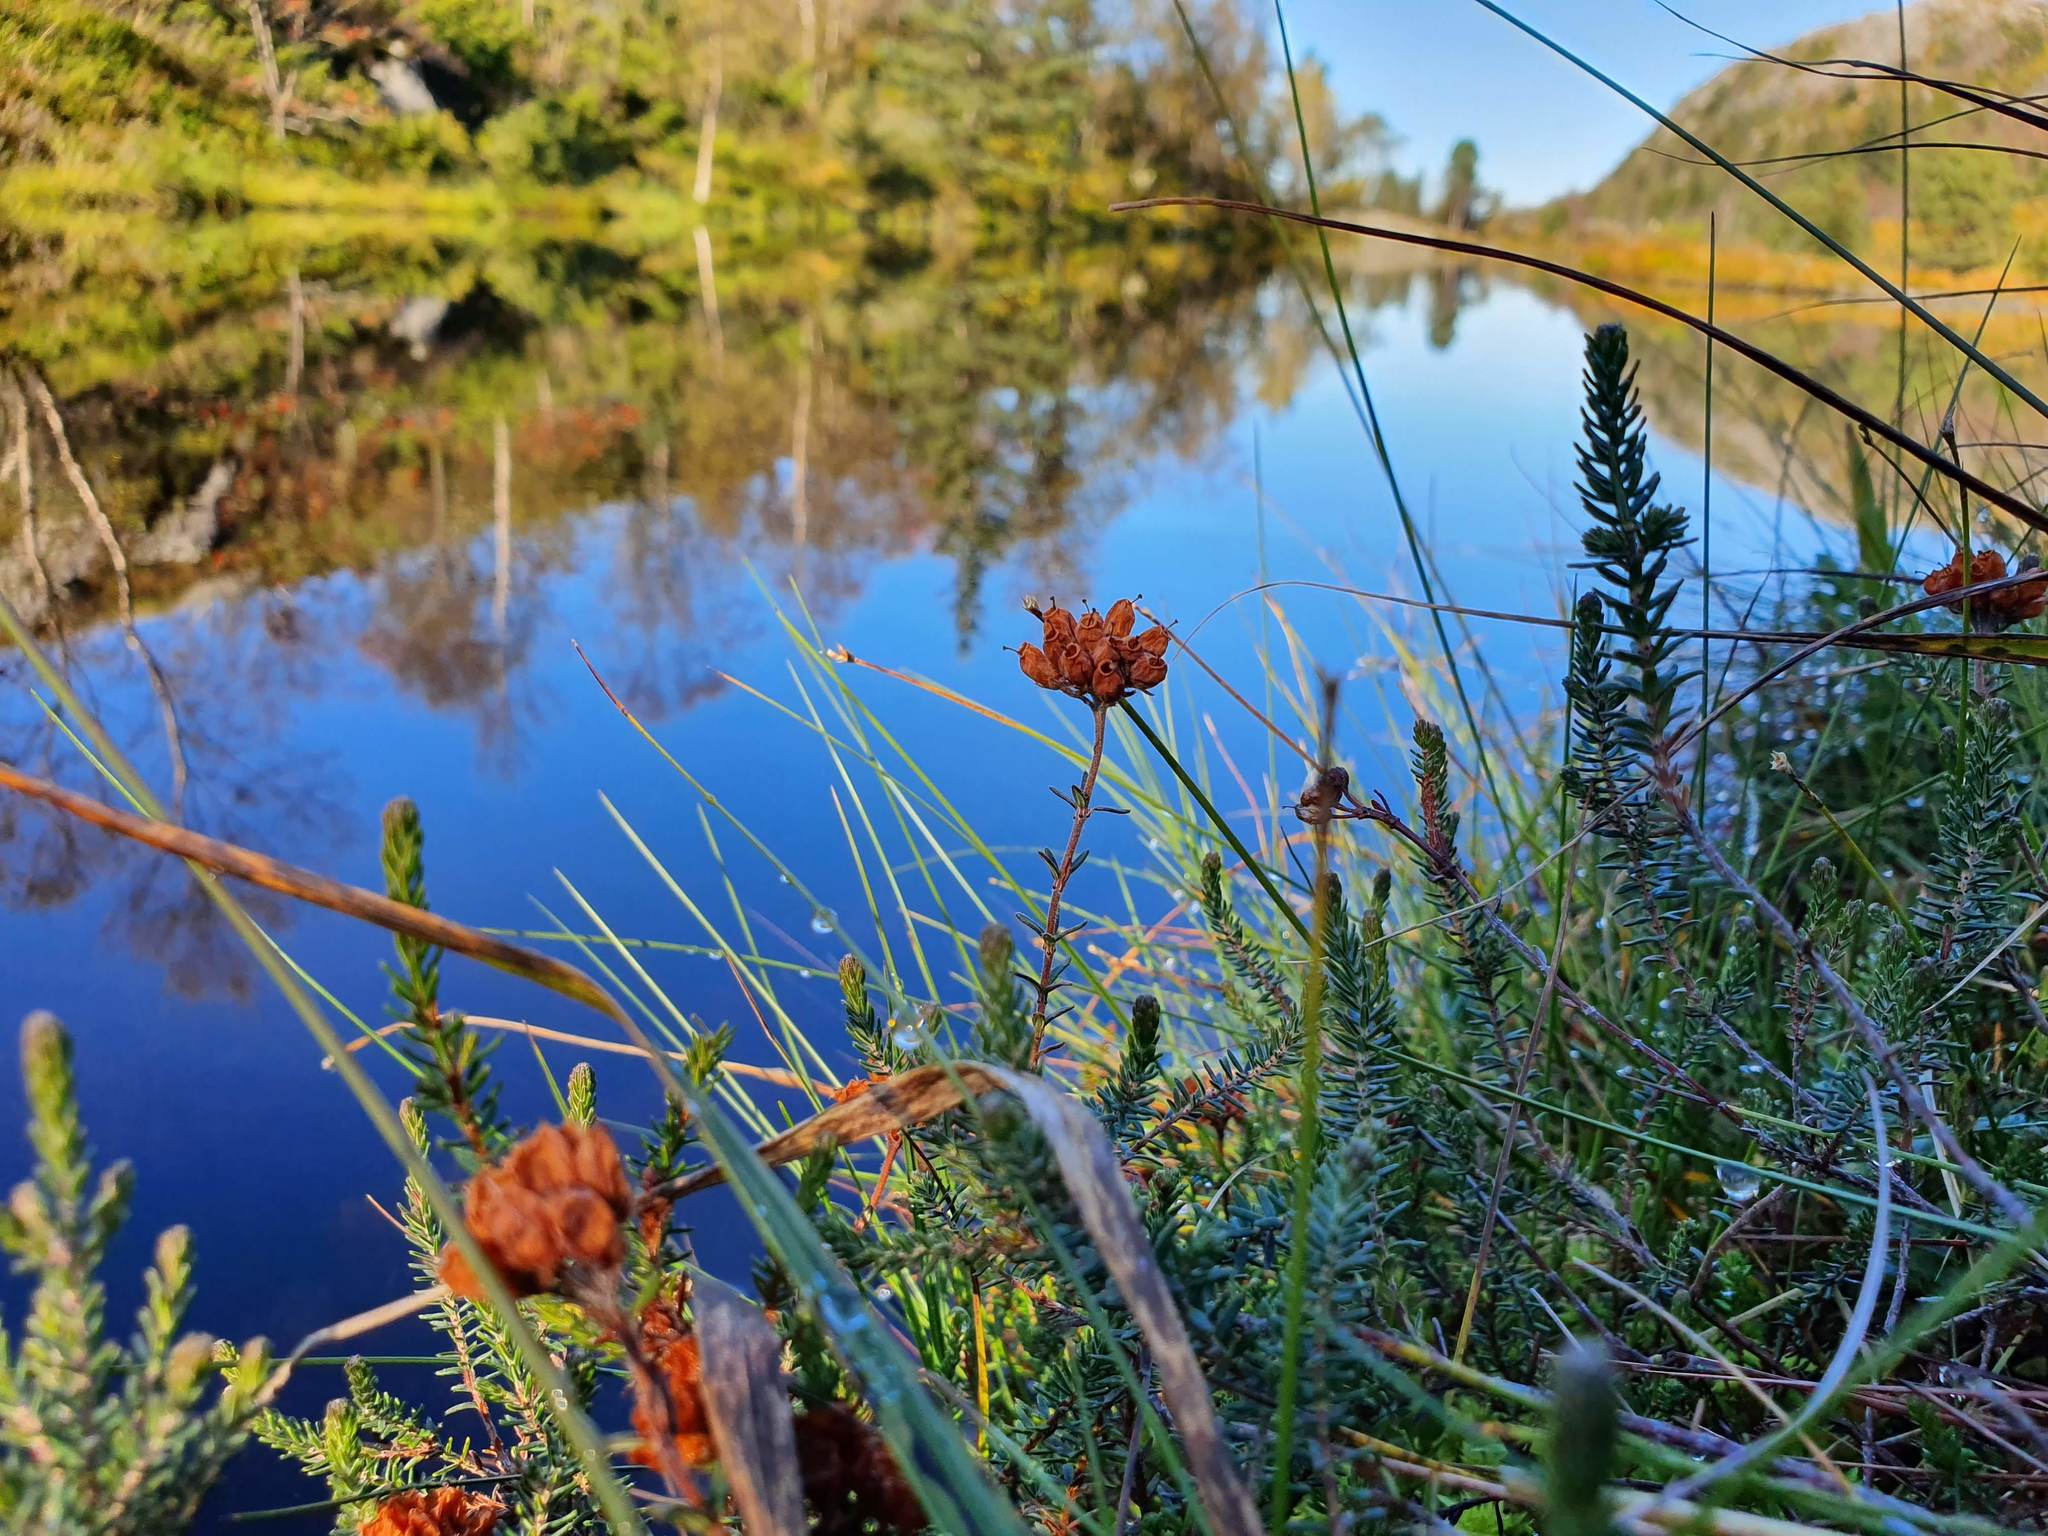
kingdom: Plantae
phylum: Tracheophyta
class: Magnoliopsida
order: Ericales
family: Ericaceae
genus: Erica
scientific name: Erica tetralix
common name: Cross-leaved heath
